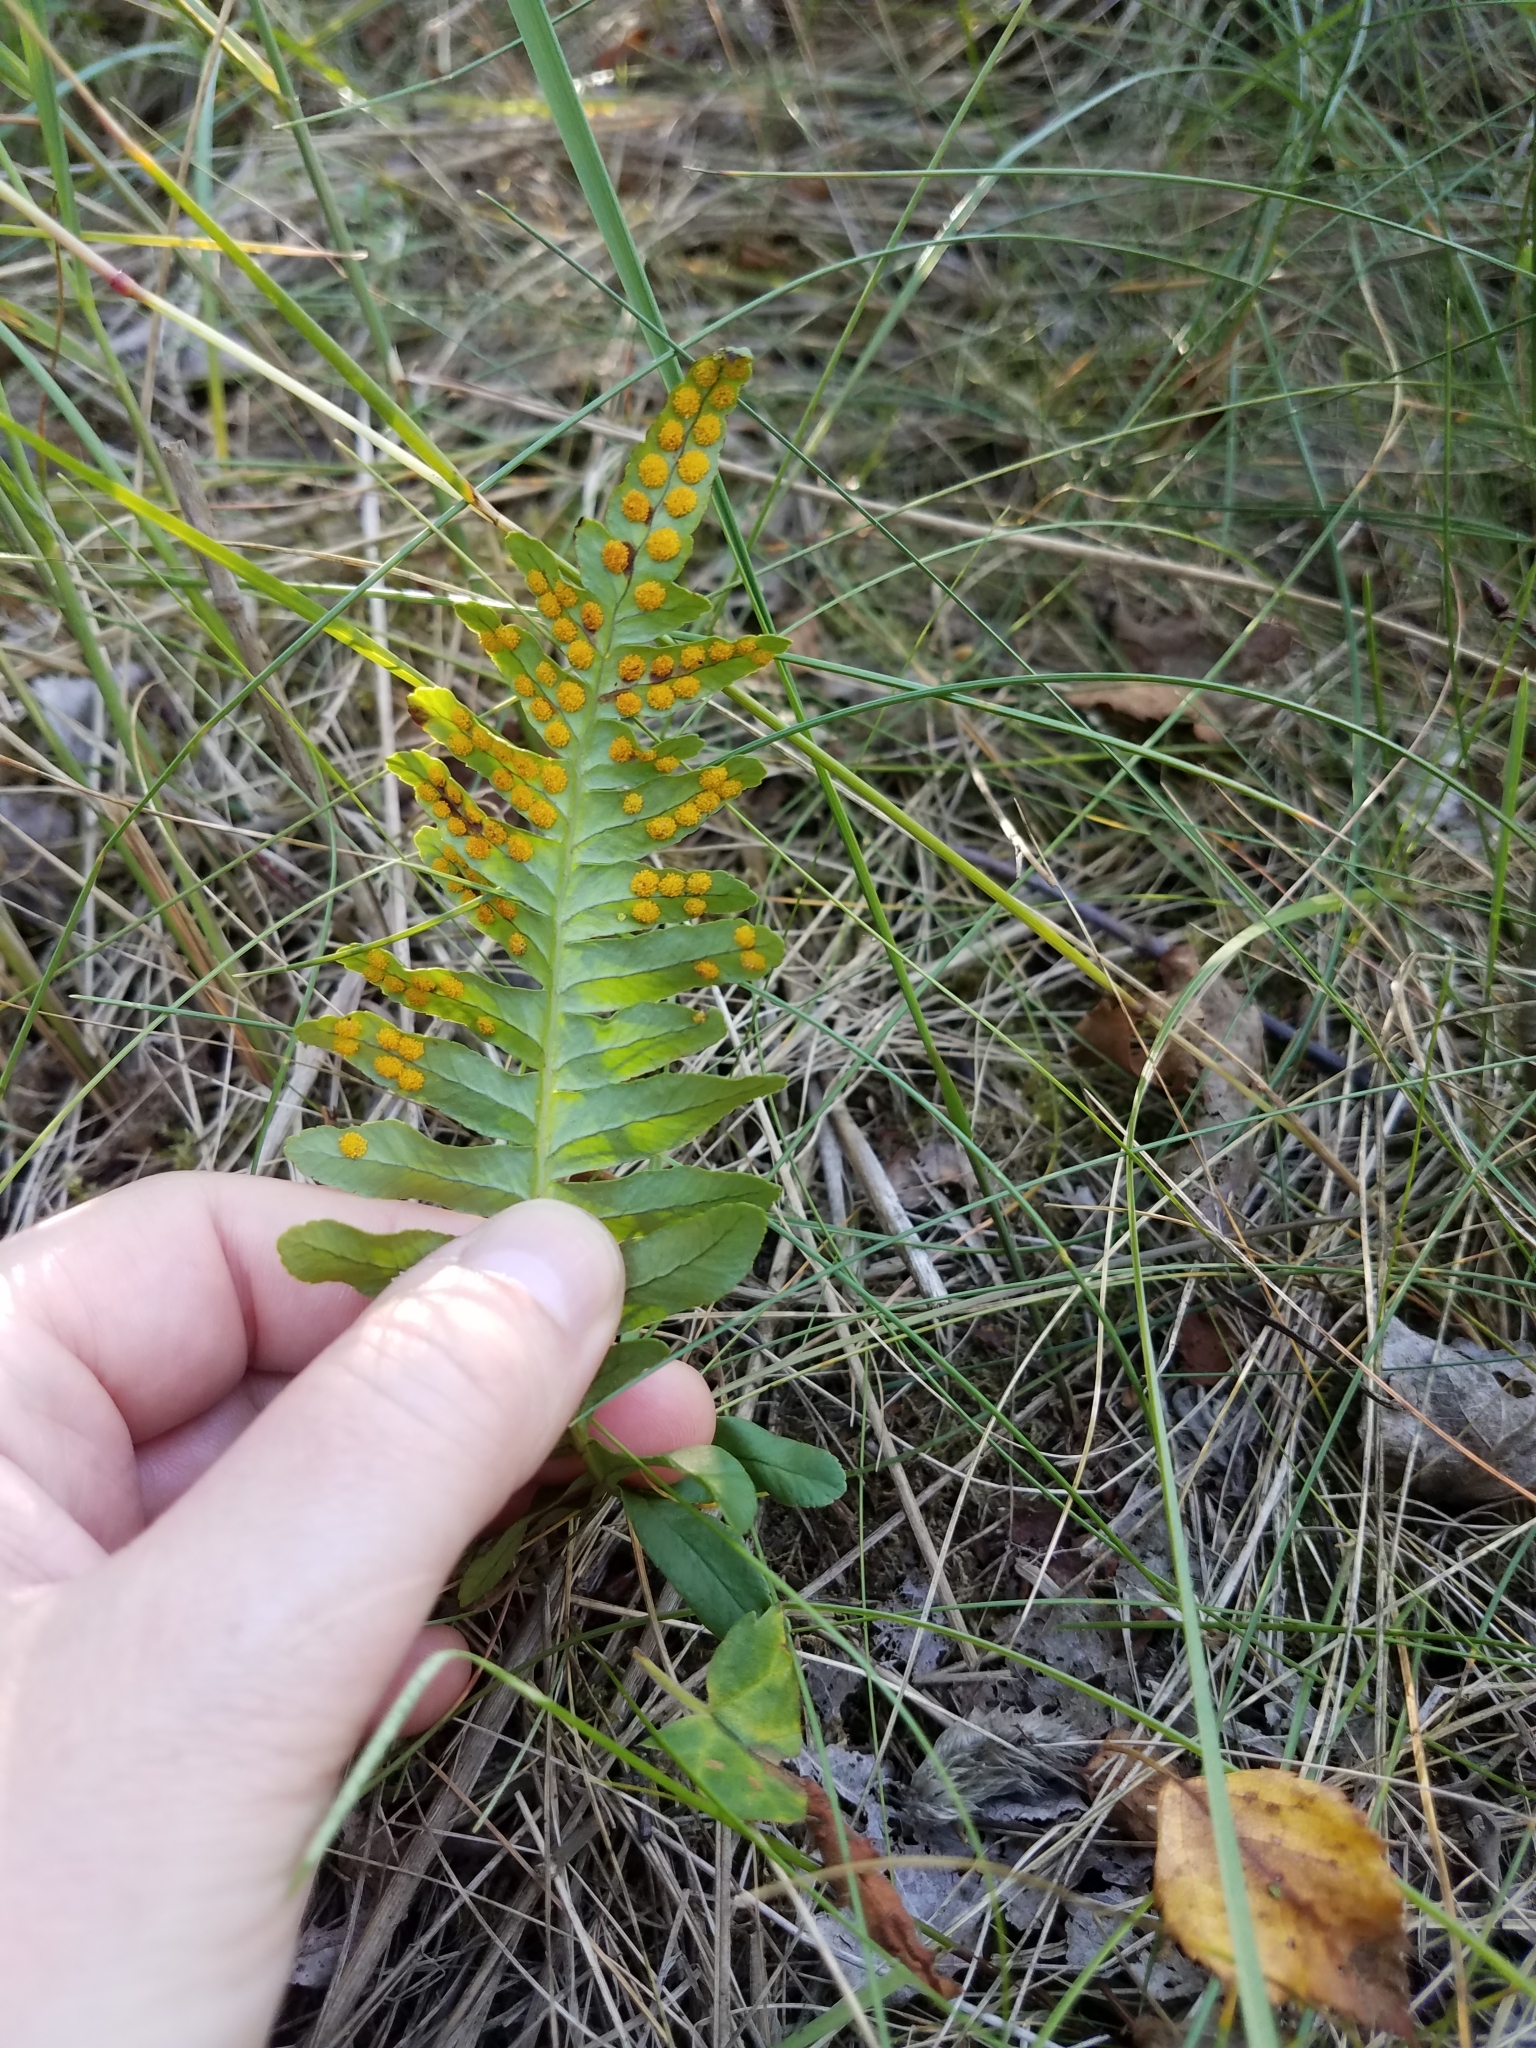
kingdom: Plantae
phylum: Tracheophyta
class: Polypodiopsida
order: Polypodiales
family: Polypodiaceae
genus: Polypodium
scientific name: Polypodium vulgare
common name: Common polypody
